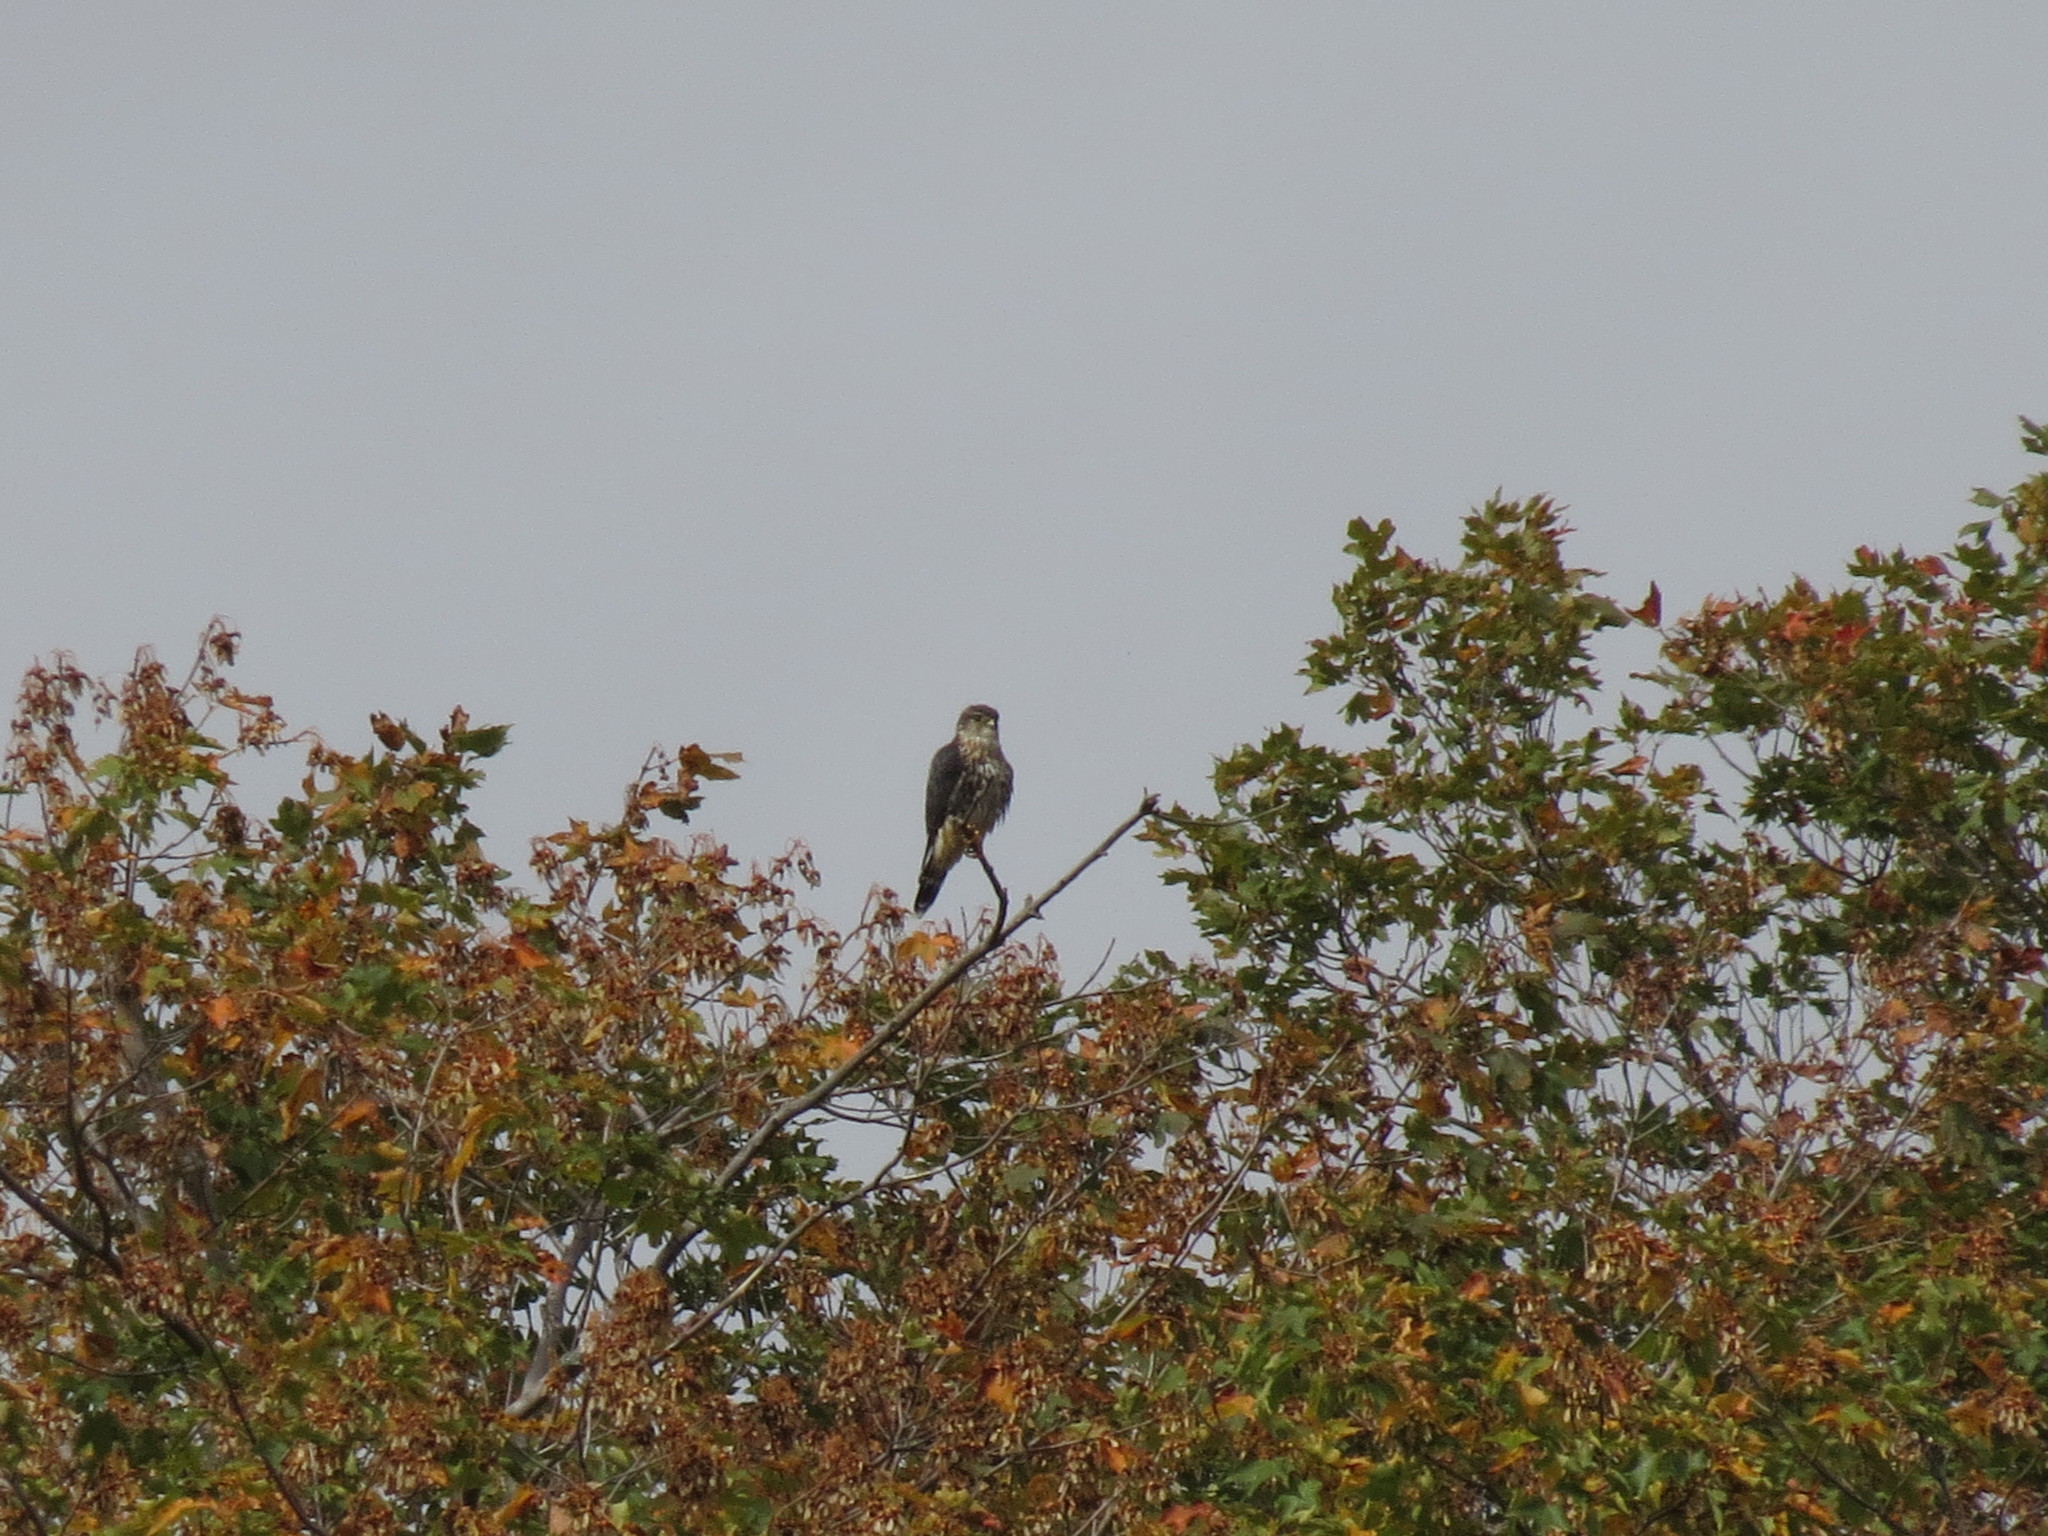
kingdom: Animalia
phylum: Chordata
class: Aves
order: Falconiformes
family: Falconidae
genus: Falco
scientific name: Falco columbarius
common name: Merlin
